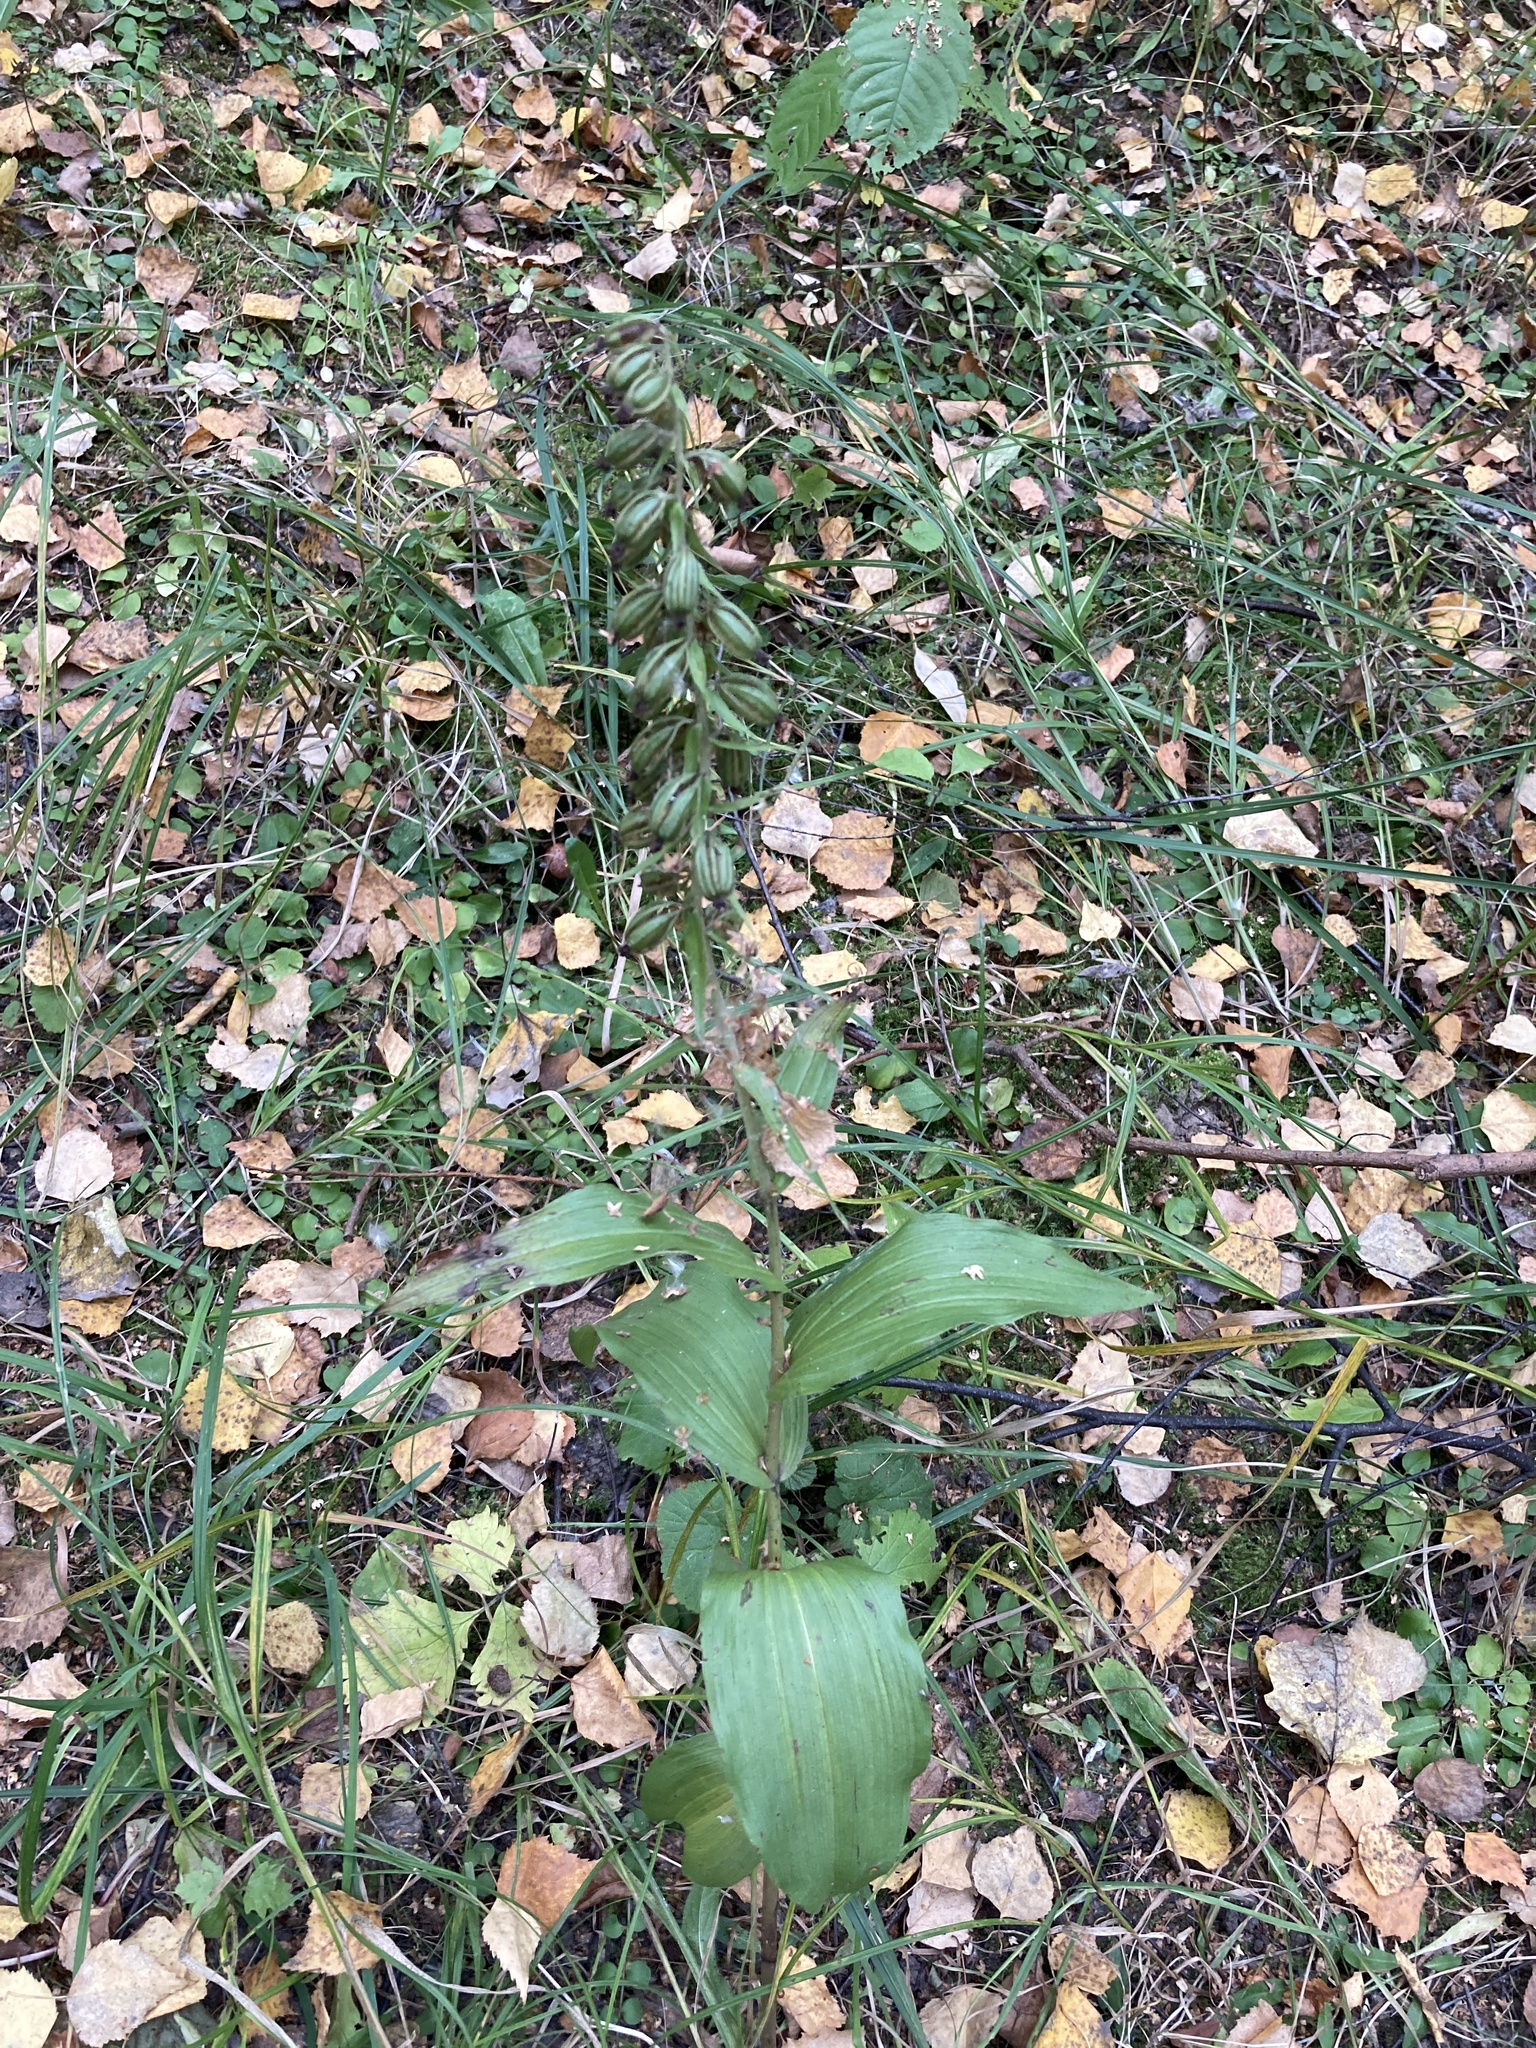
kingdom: Plantae
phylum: Tracheophyta
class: Liliopsida
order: Asparagales
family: Orchidaceae
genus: Epipactis
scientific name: Epipactis helleborine
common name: Broad-leaved helleborine
